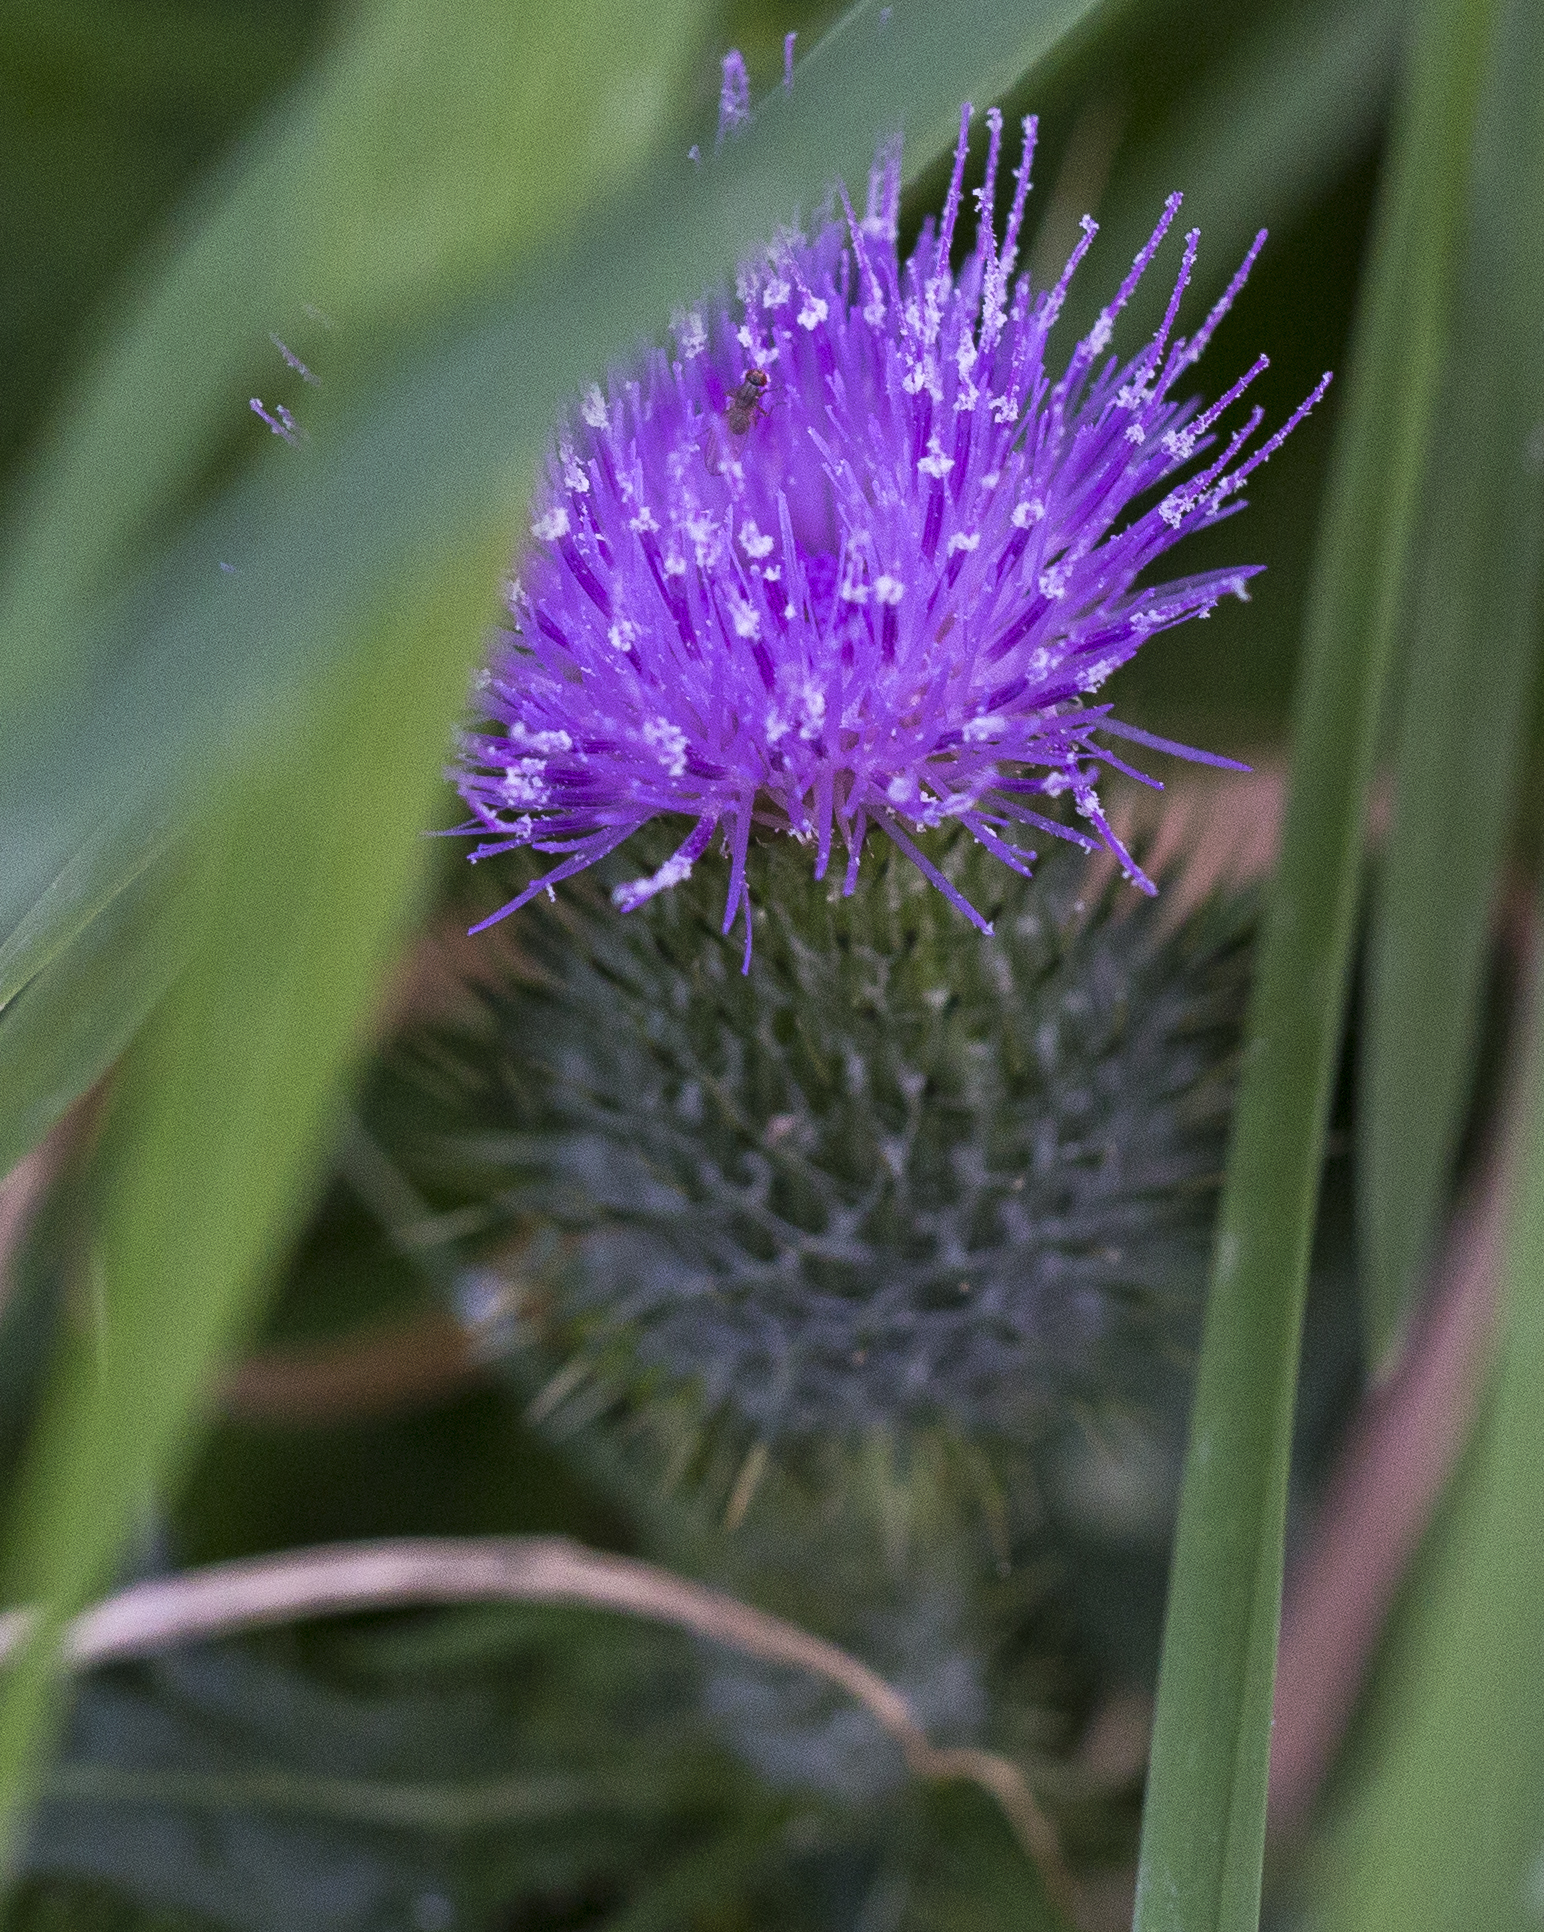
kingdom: Plantae
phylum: Tracheophyta
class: Magnoliopsida
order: Asterales
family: Asteraceae
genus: Cirsium
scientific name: Cirsium vulgare
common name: Bull thistle
